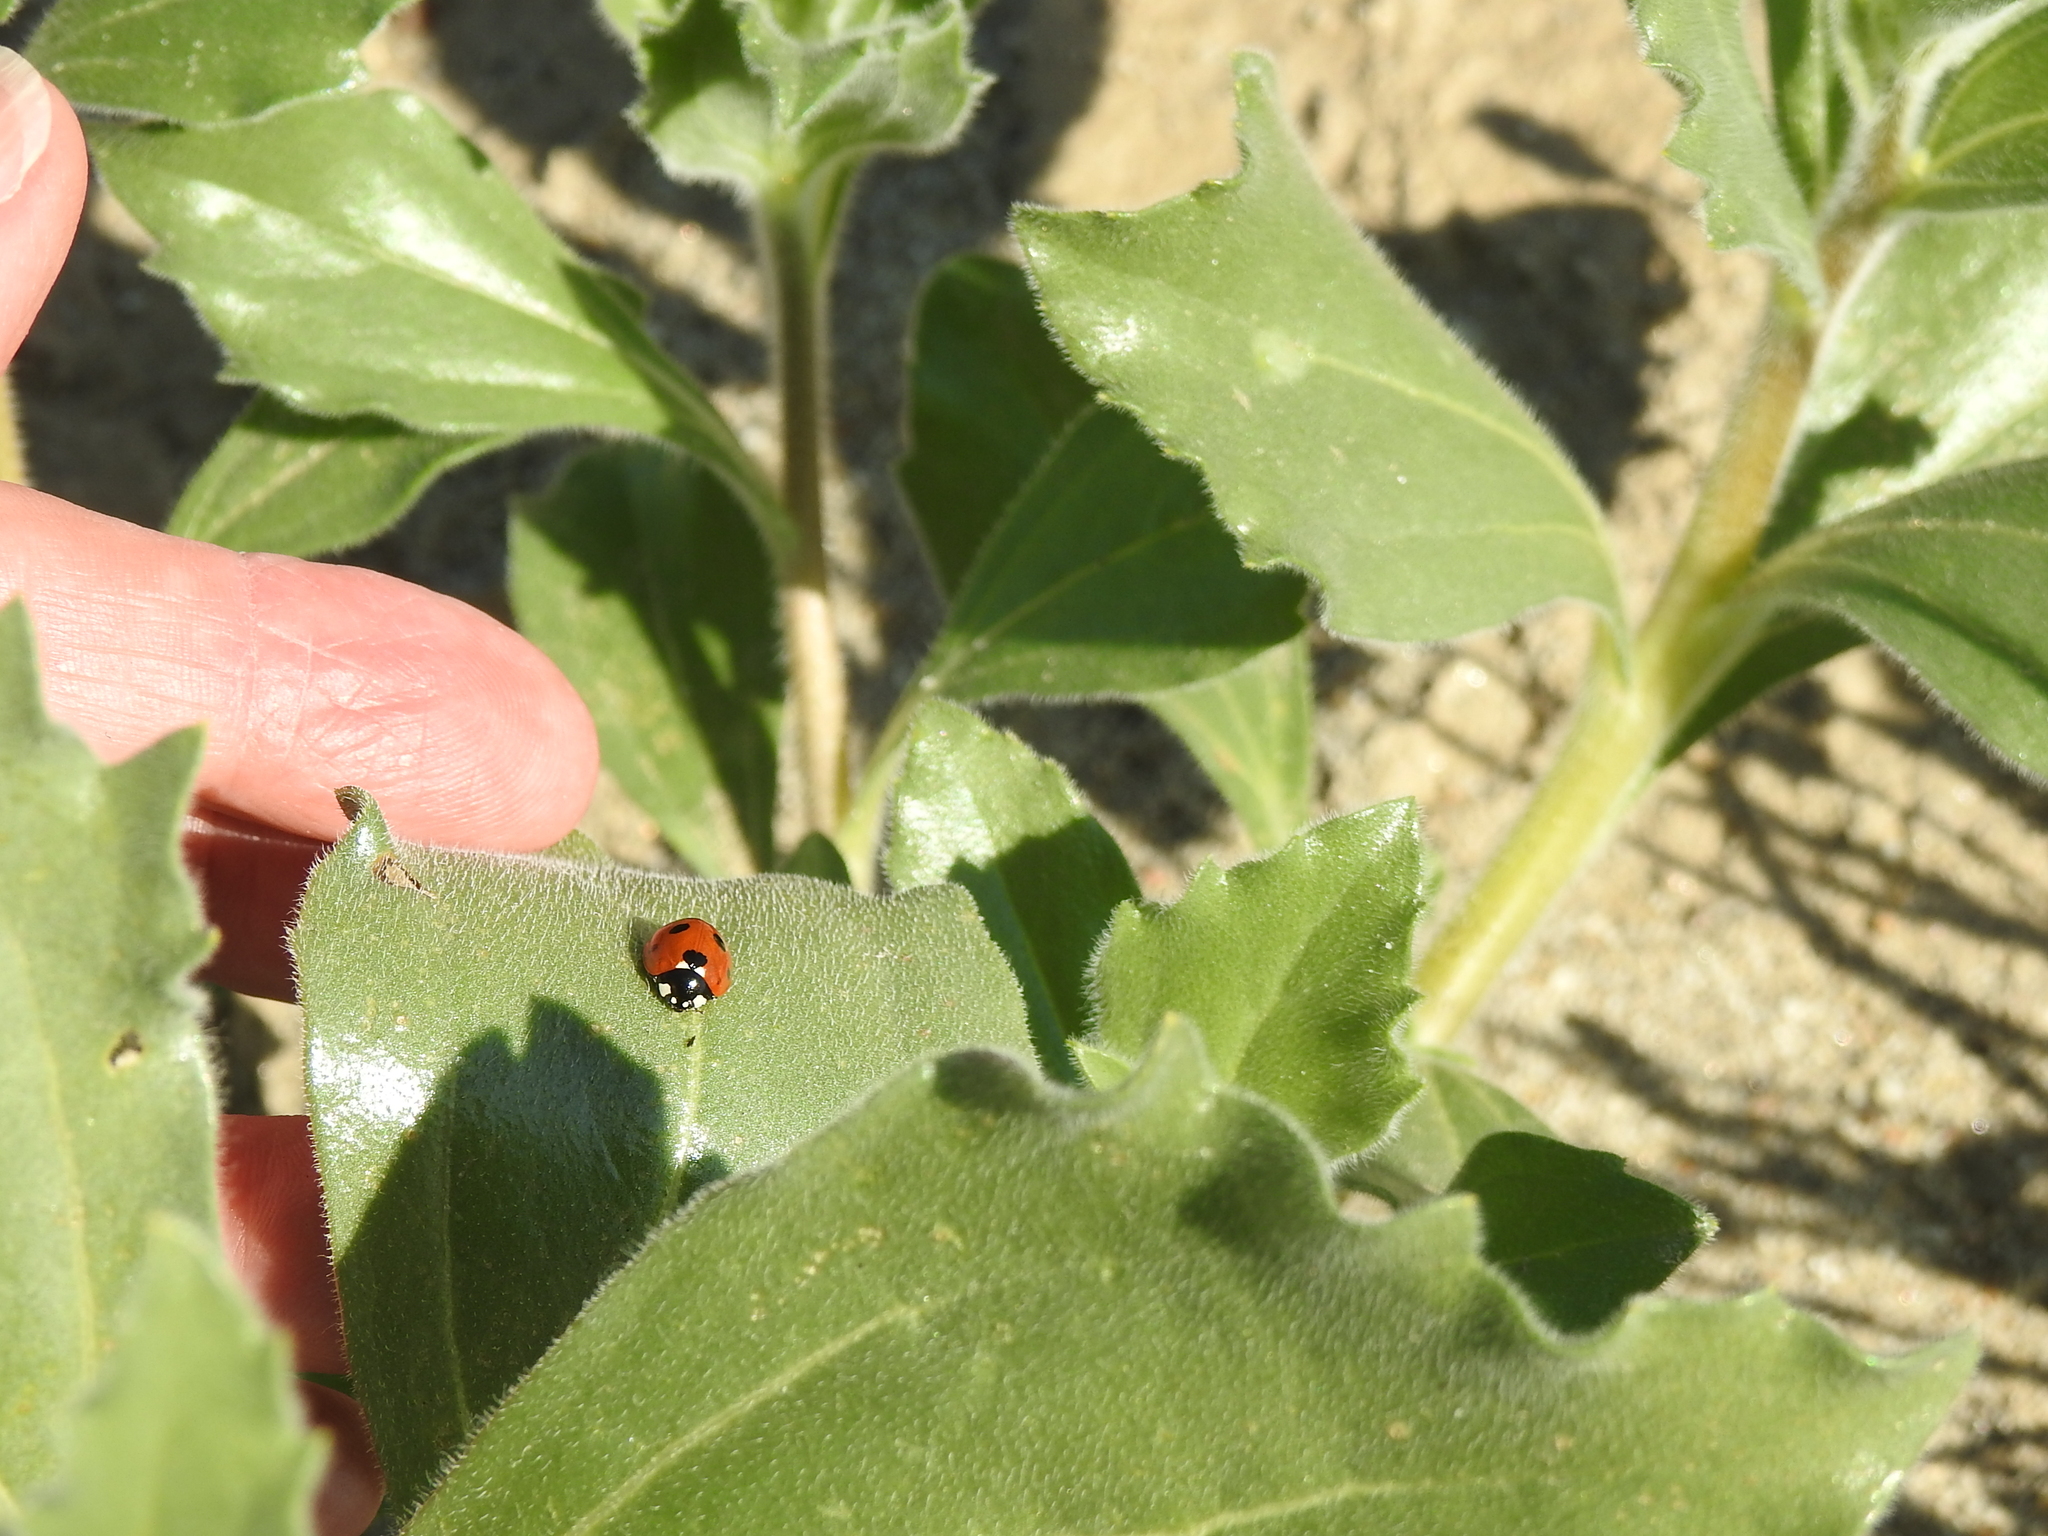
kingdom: Animalia
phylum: Arthropoda
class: Insecta
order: Coleoptera
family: Coccinellidae
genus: Coccinella
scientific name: Coccinella septempunctata
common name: Sevenspotted lady beetle
